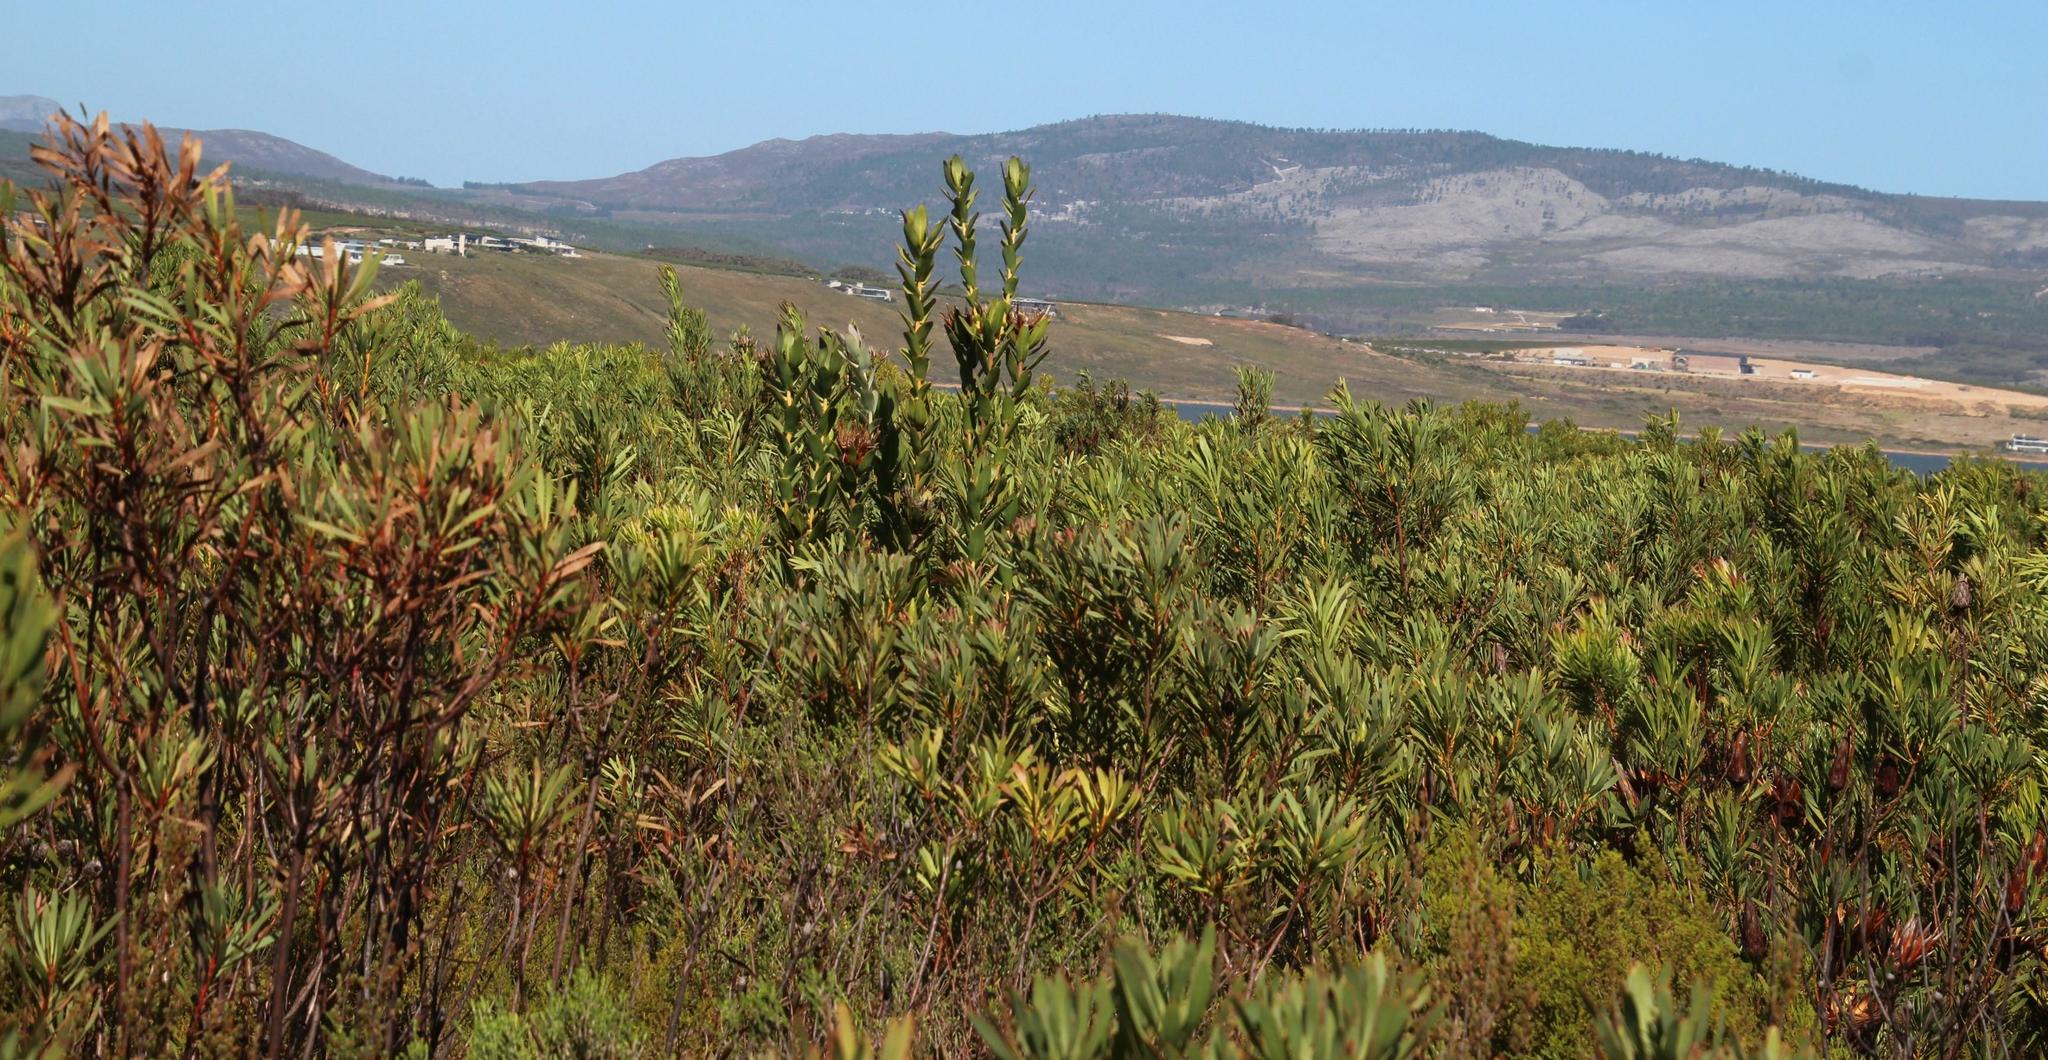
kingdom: Plantae
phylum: Tracheophyta
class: Magnoliopsida
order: Proteales
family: Proteaceae
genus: Protea
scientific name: Protea compacta
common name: Bot river protea
